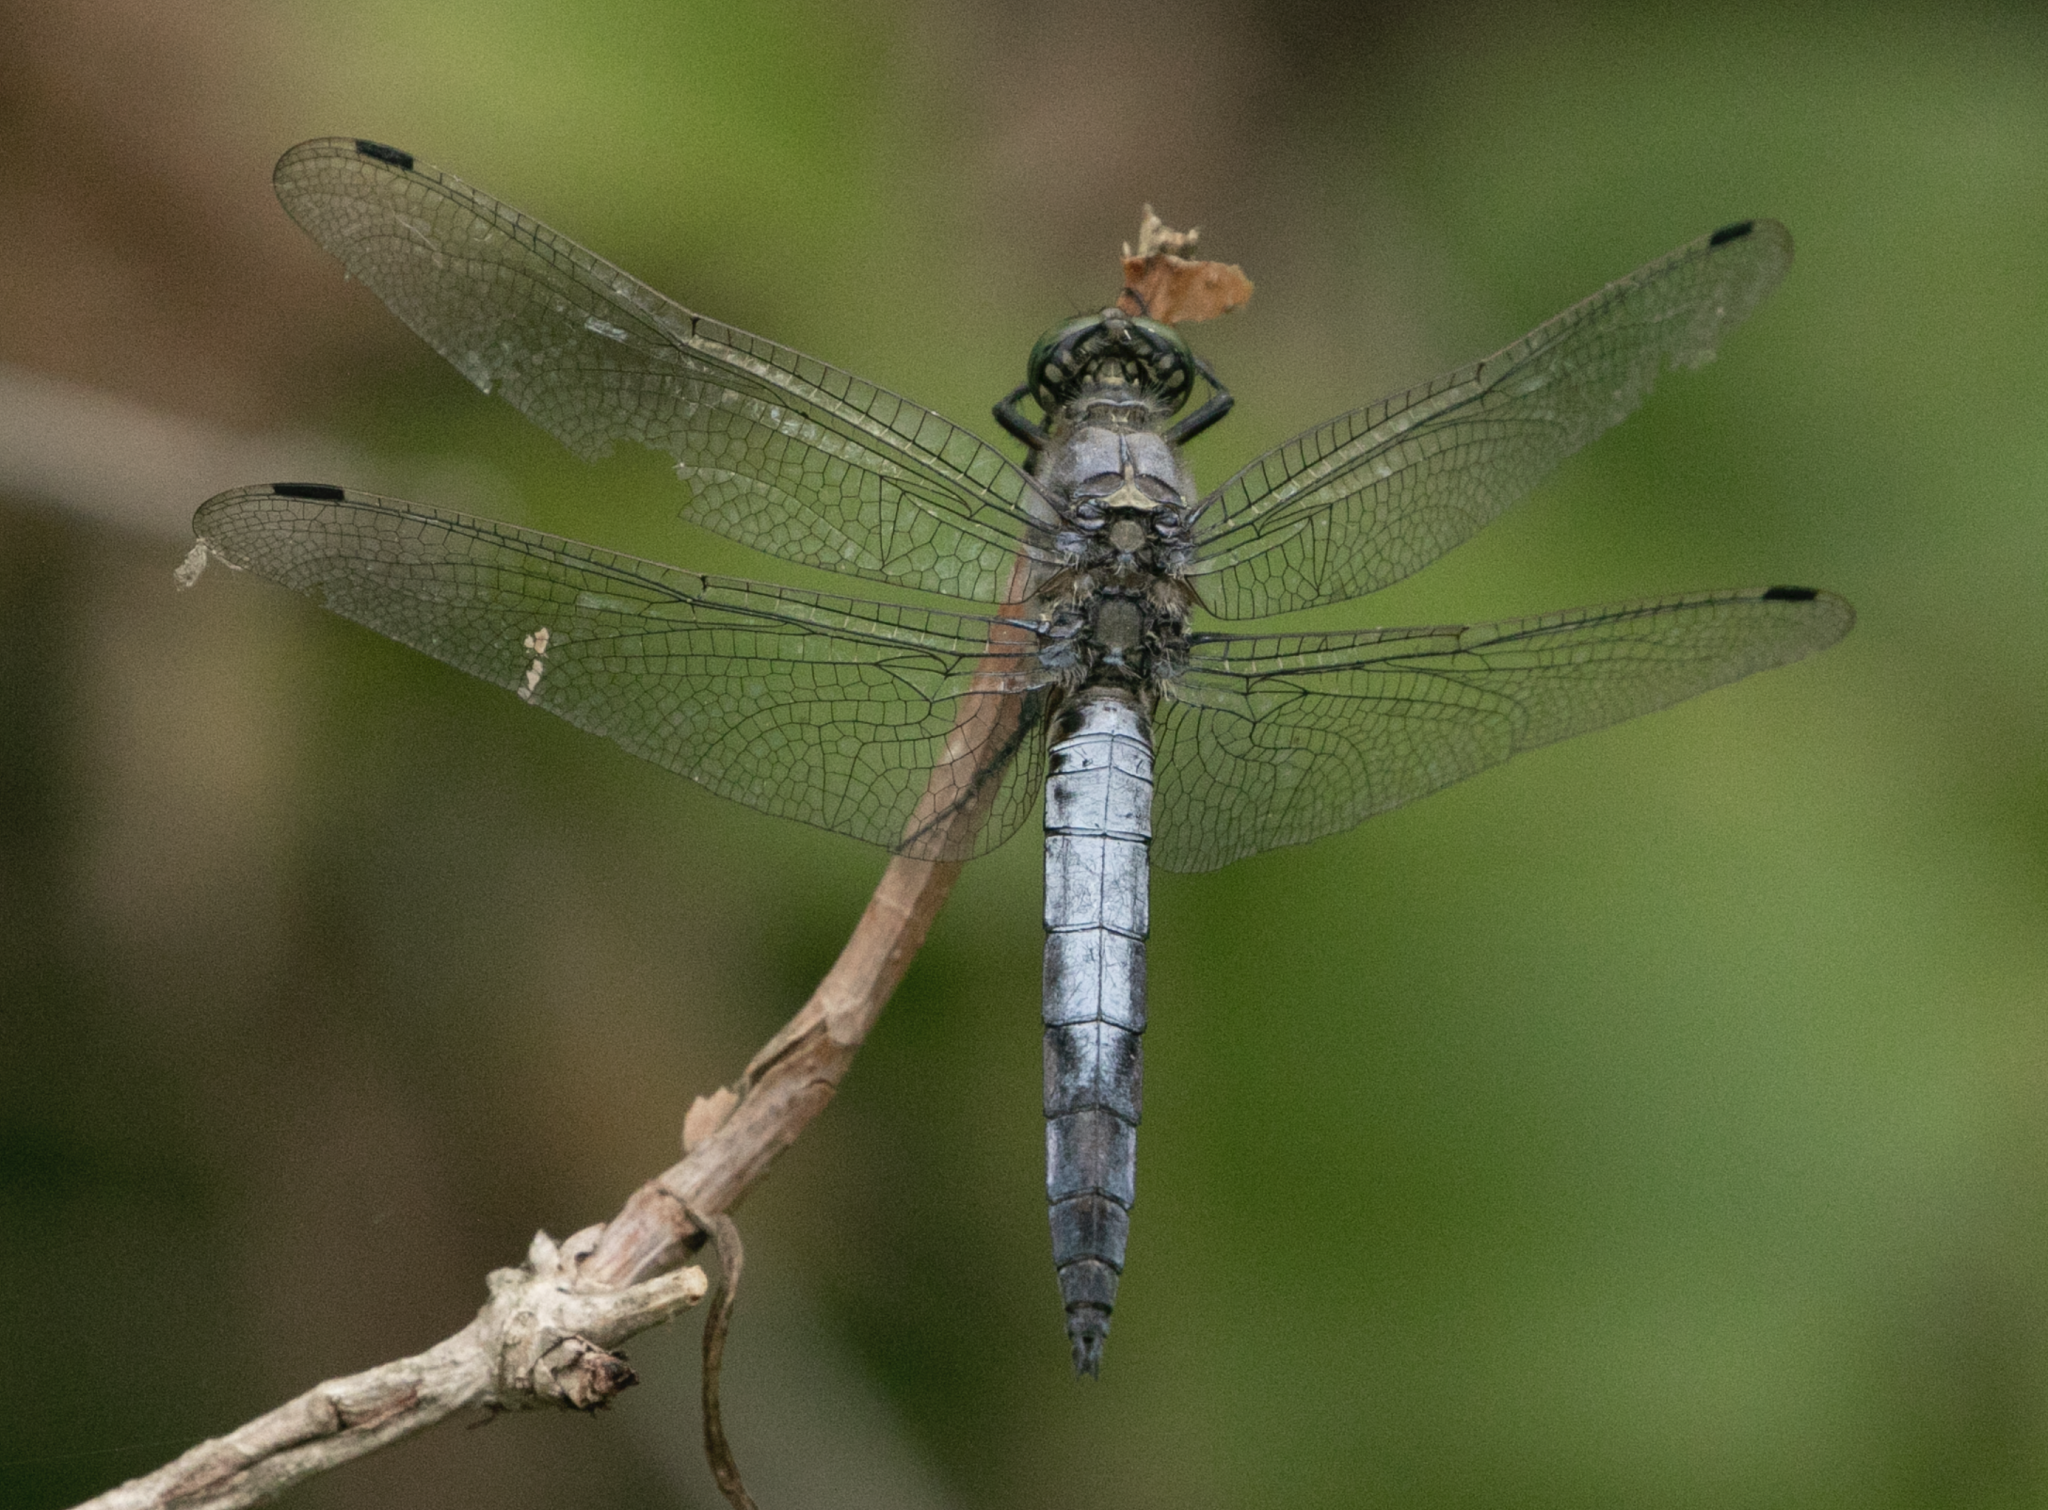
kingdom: Animalia
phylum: Arthropoda
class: Insecta
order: Odonata
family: Libellulidae
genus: Orthetrum
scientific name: Orthetrum cancellatum
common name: Black-tailed skimmer
